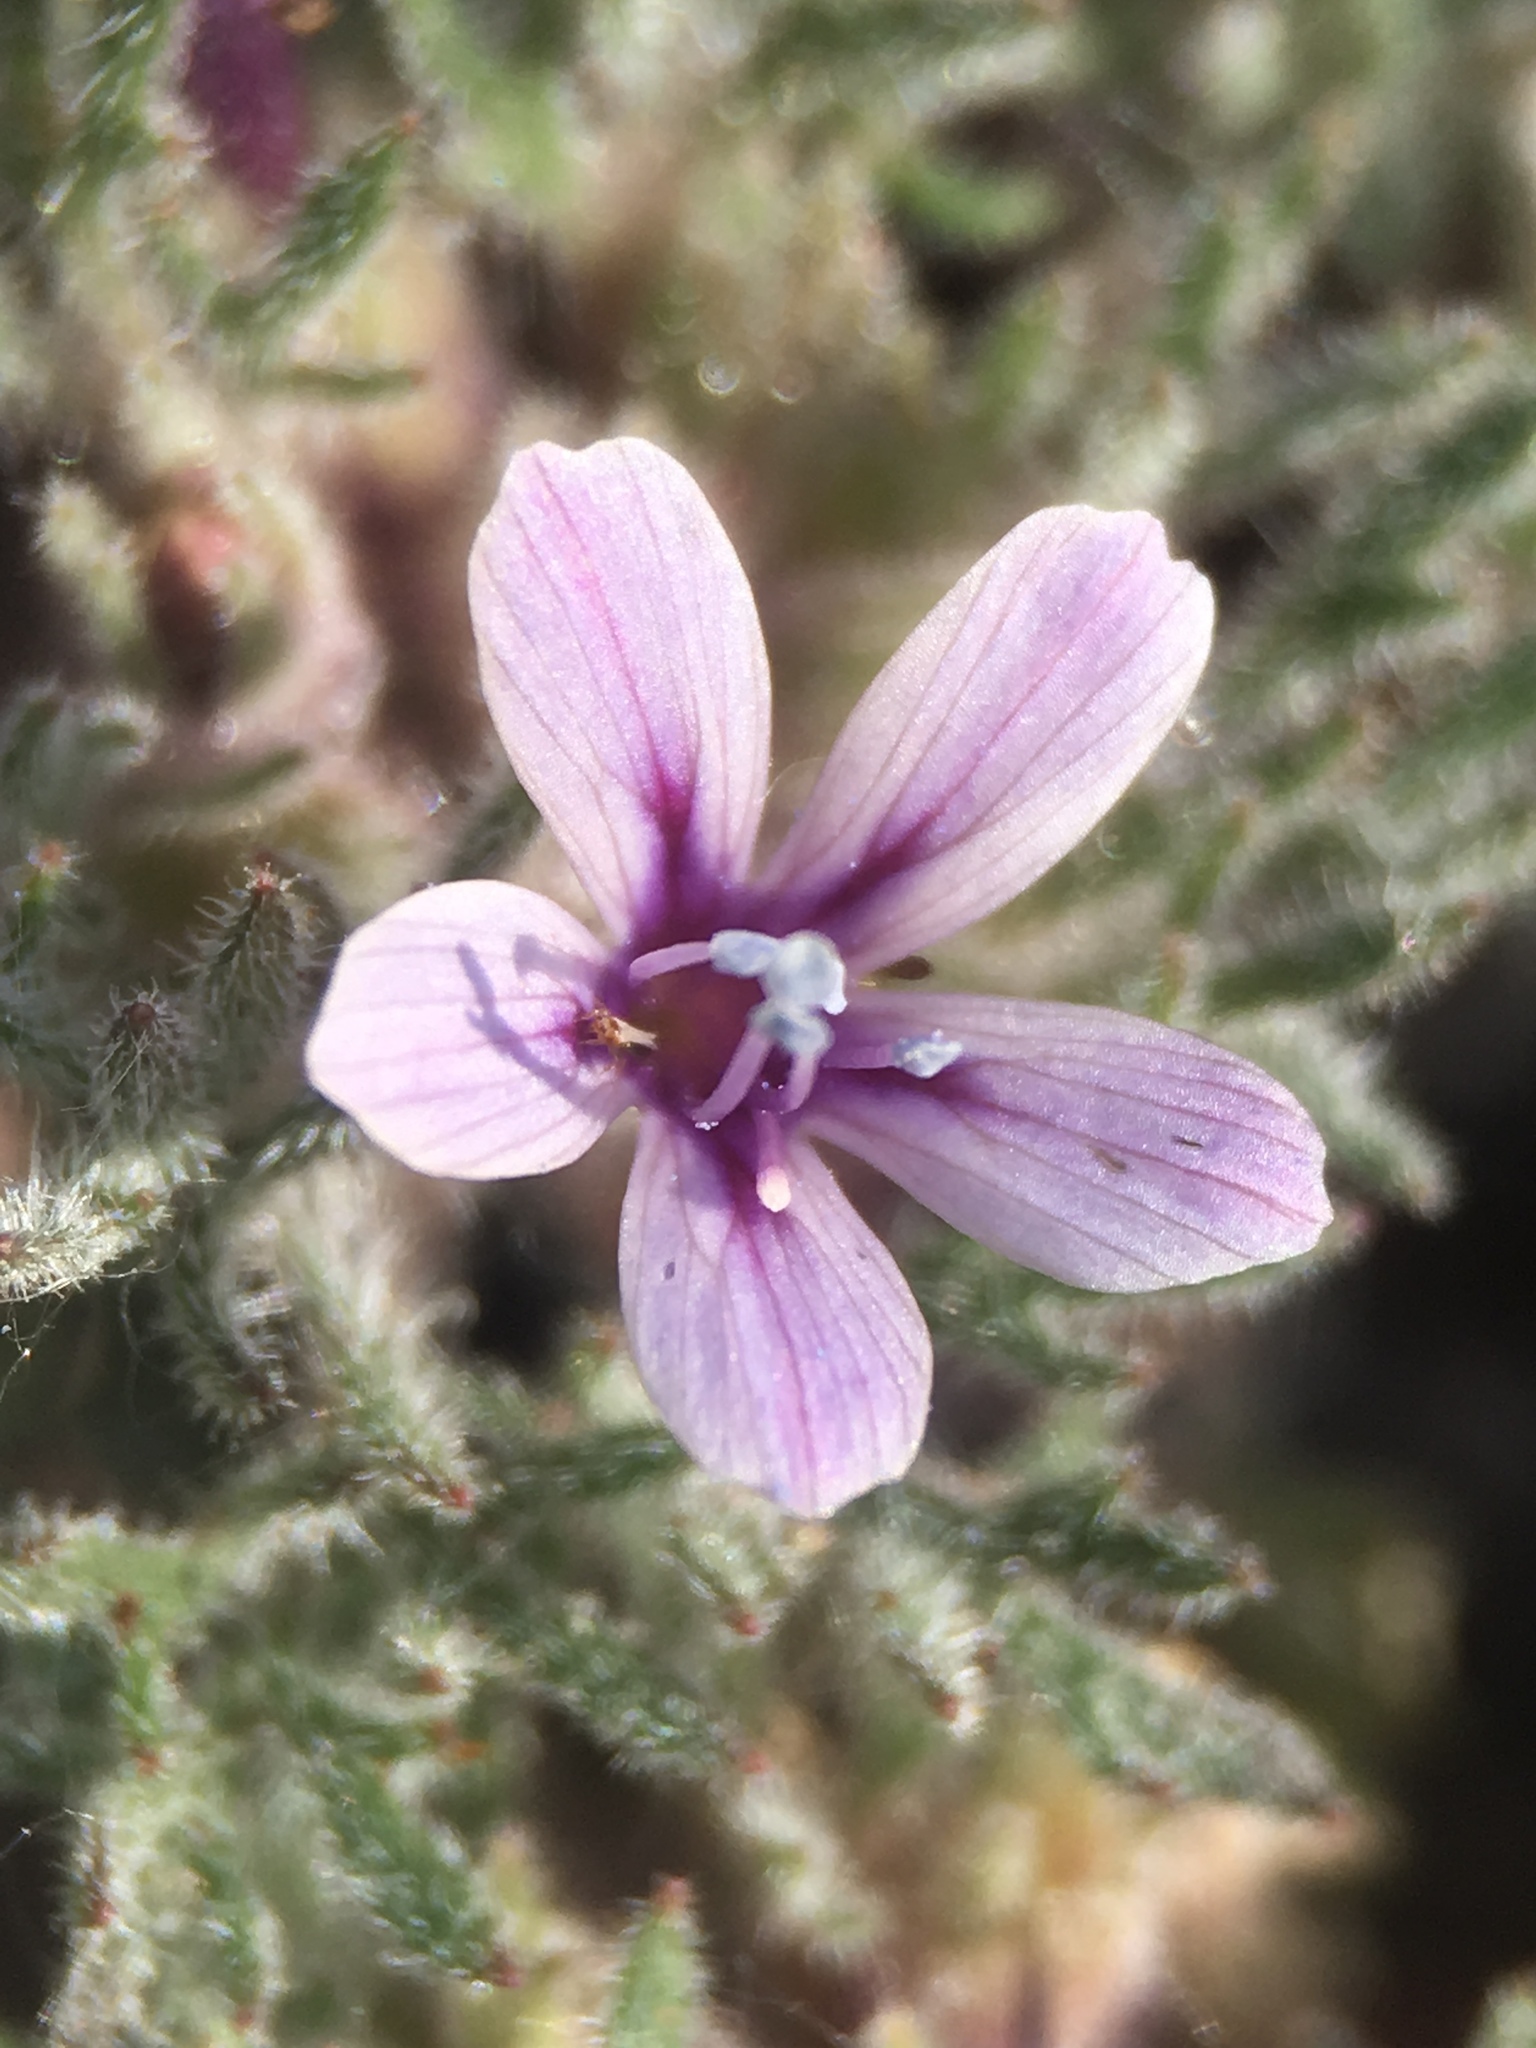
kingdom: Plantae
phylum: Tracheophyta
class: Magnoliopsida
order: Ericales
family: Polemoniaceae
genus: Collomia
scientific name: Collomia larsenii
